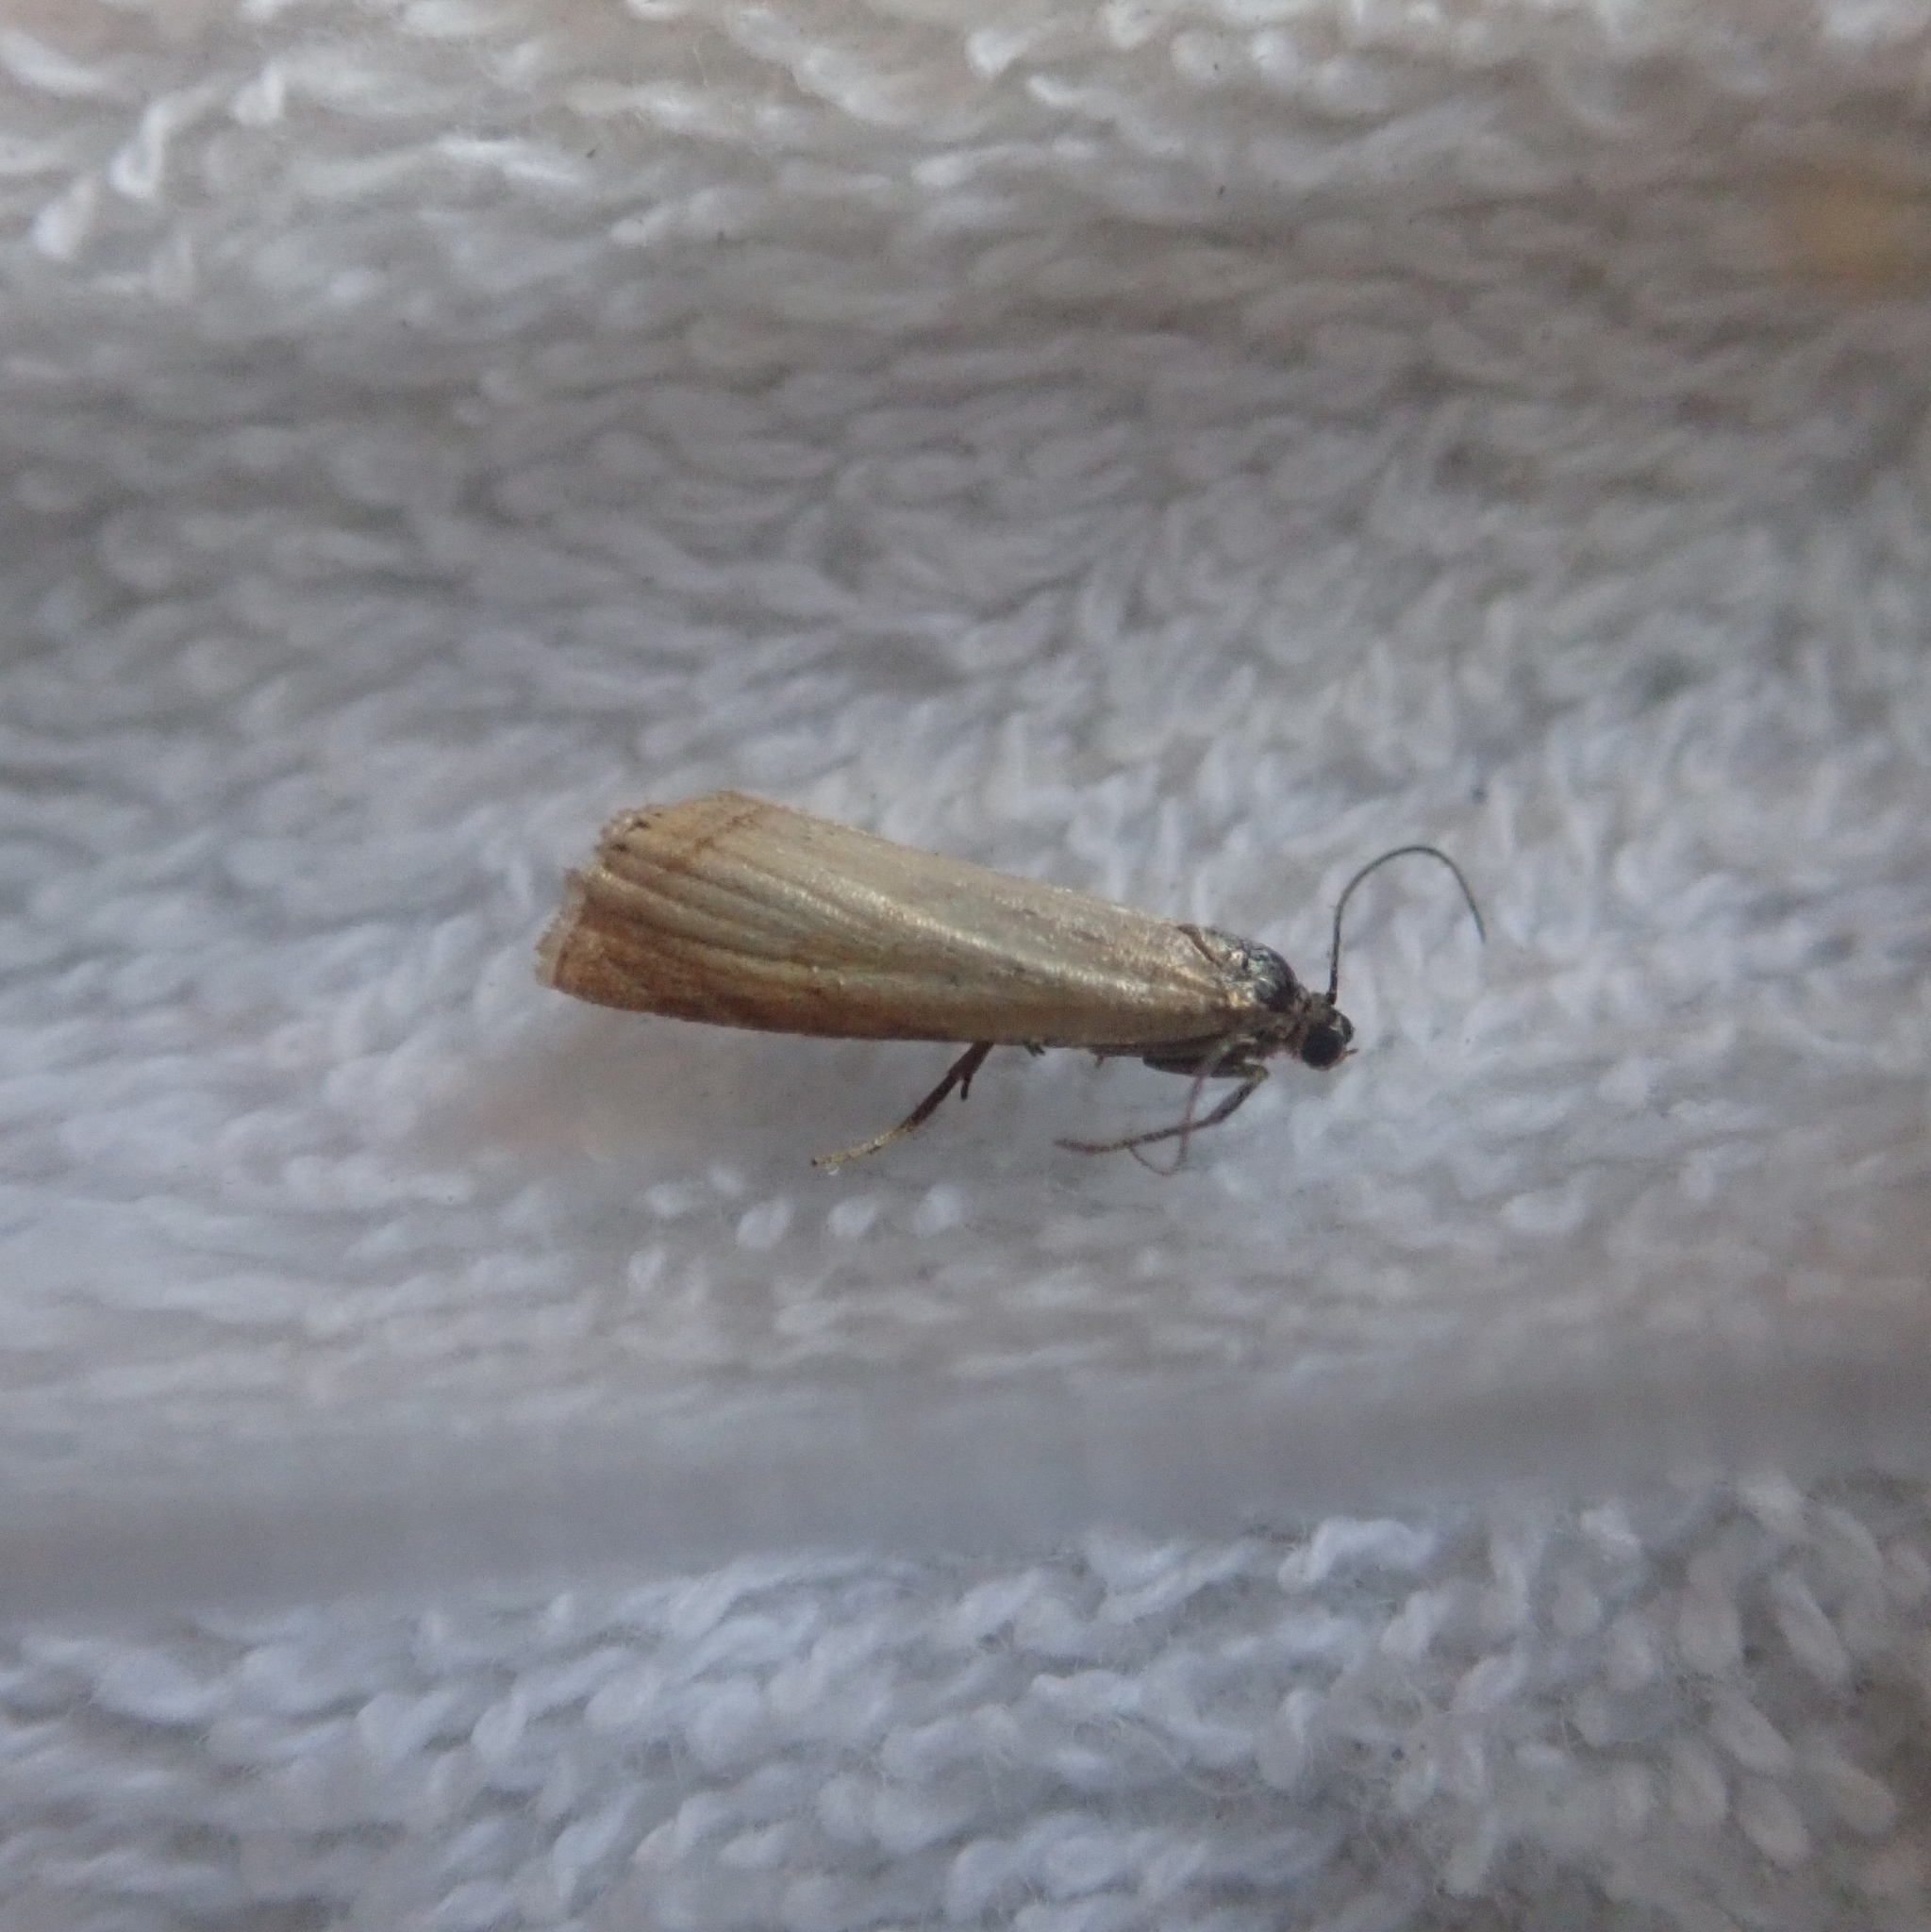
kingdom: Animalia
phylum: Arthropoda
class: Insecta
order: Lepidoptera
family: Crambidae
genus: Chrysoteuchia
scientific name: Chrysoteuchia culmella
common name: Garden grass-veneer
